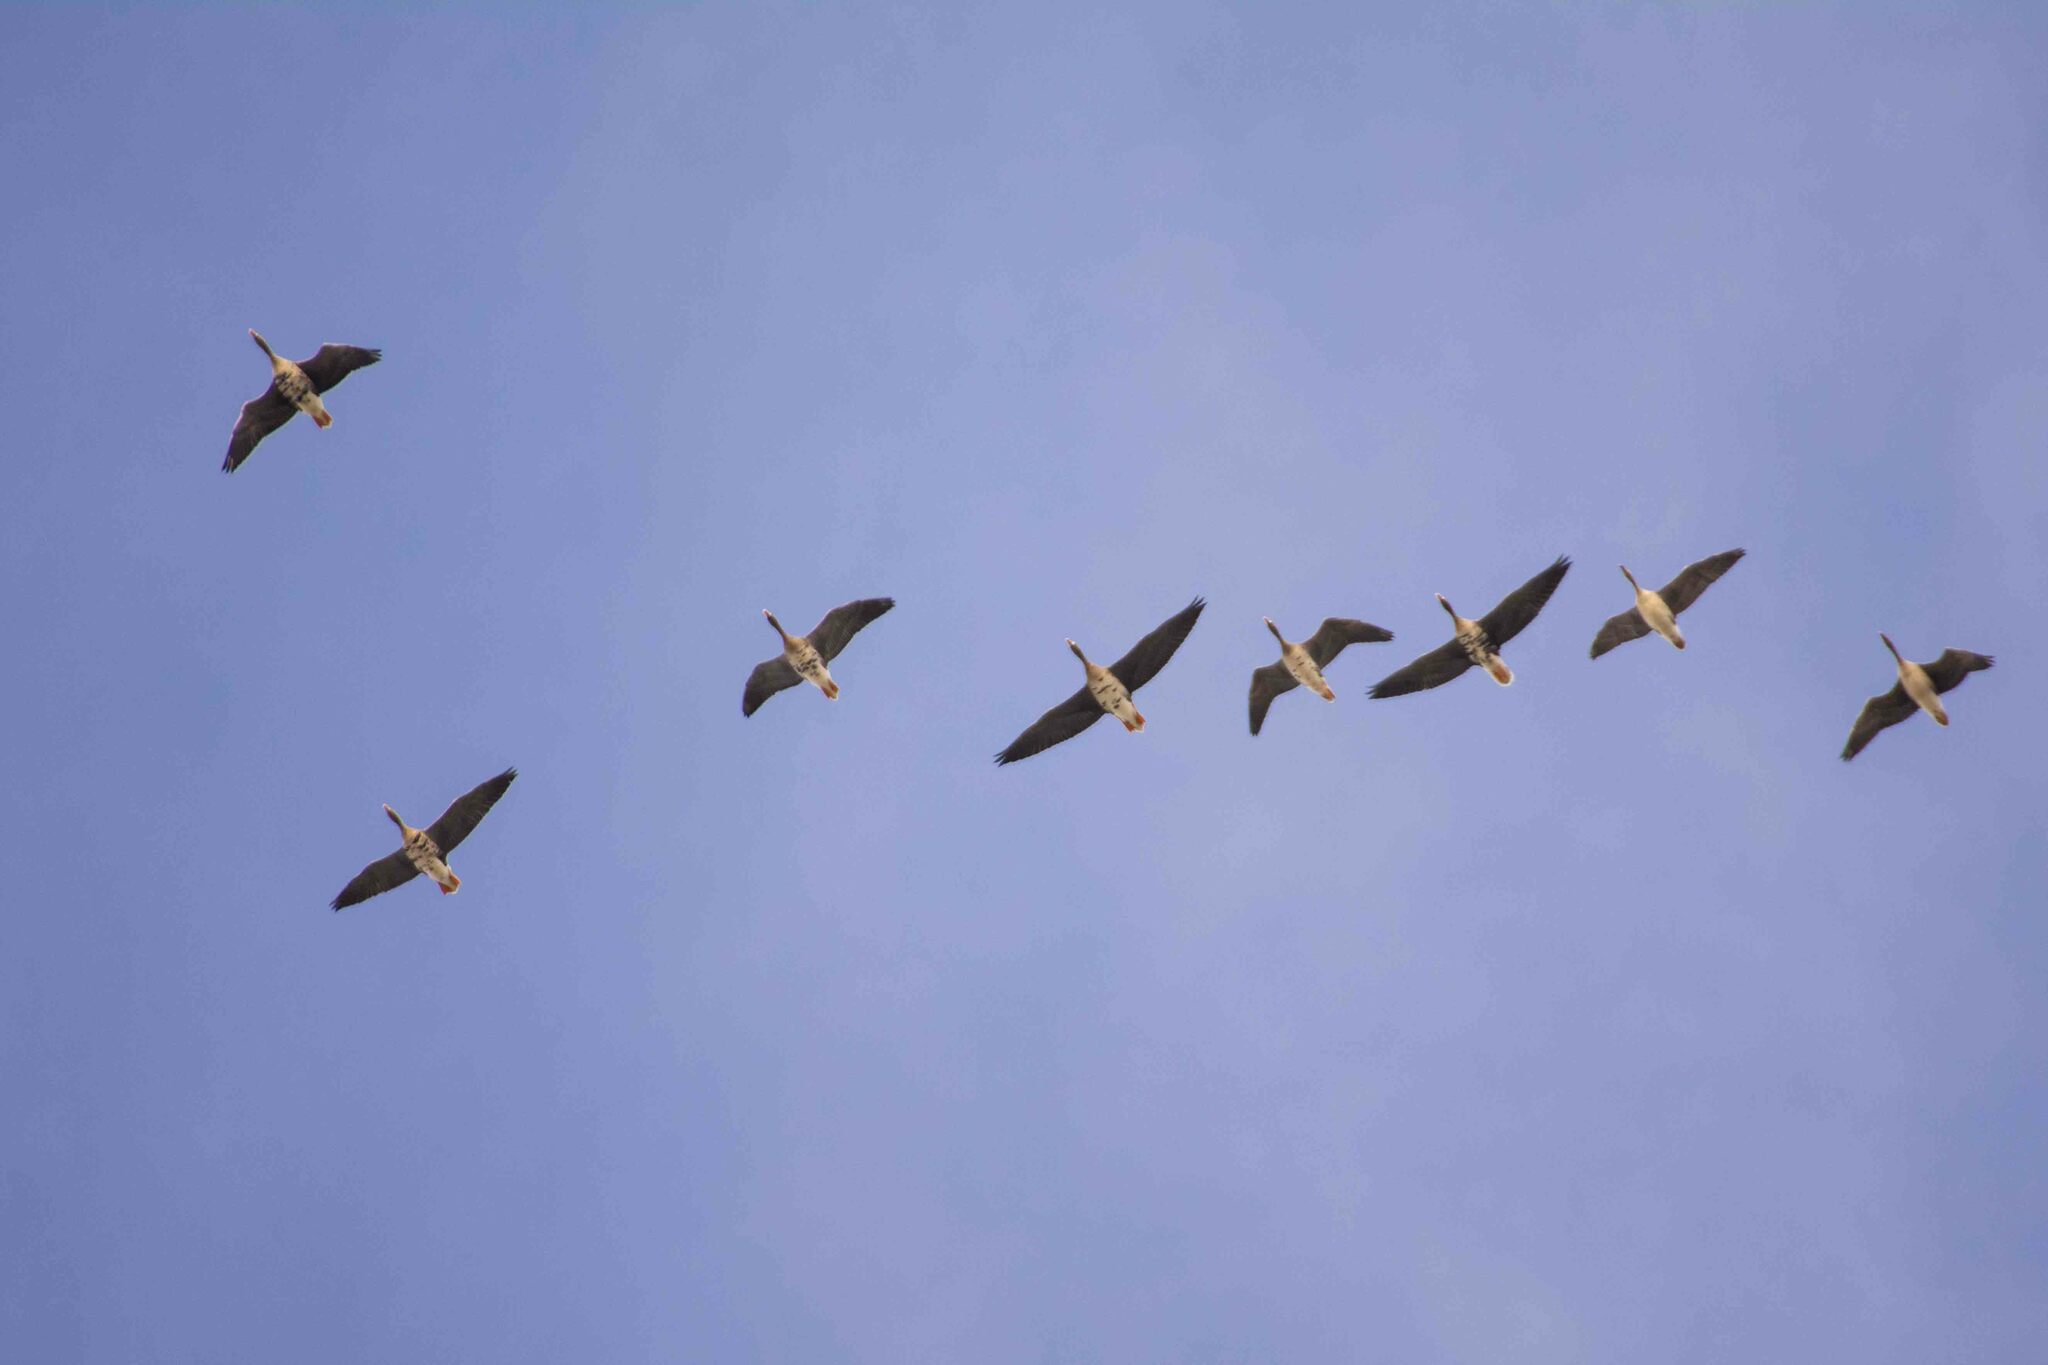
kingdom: Animalia
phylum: Chordata
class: Aves
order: Anseriformes
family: Anatidae
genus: Anser
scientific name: Anser albifrons
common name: Greater white-fronted goose
